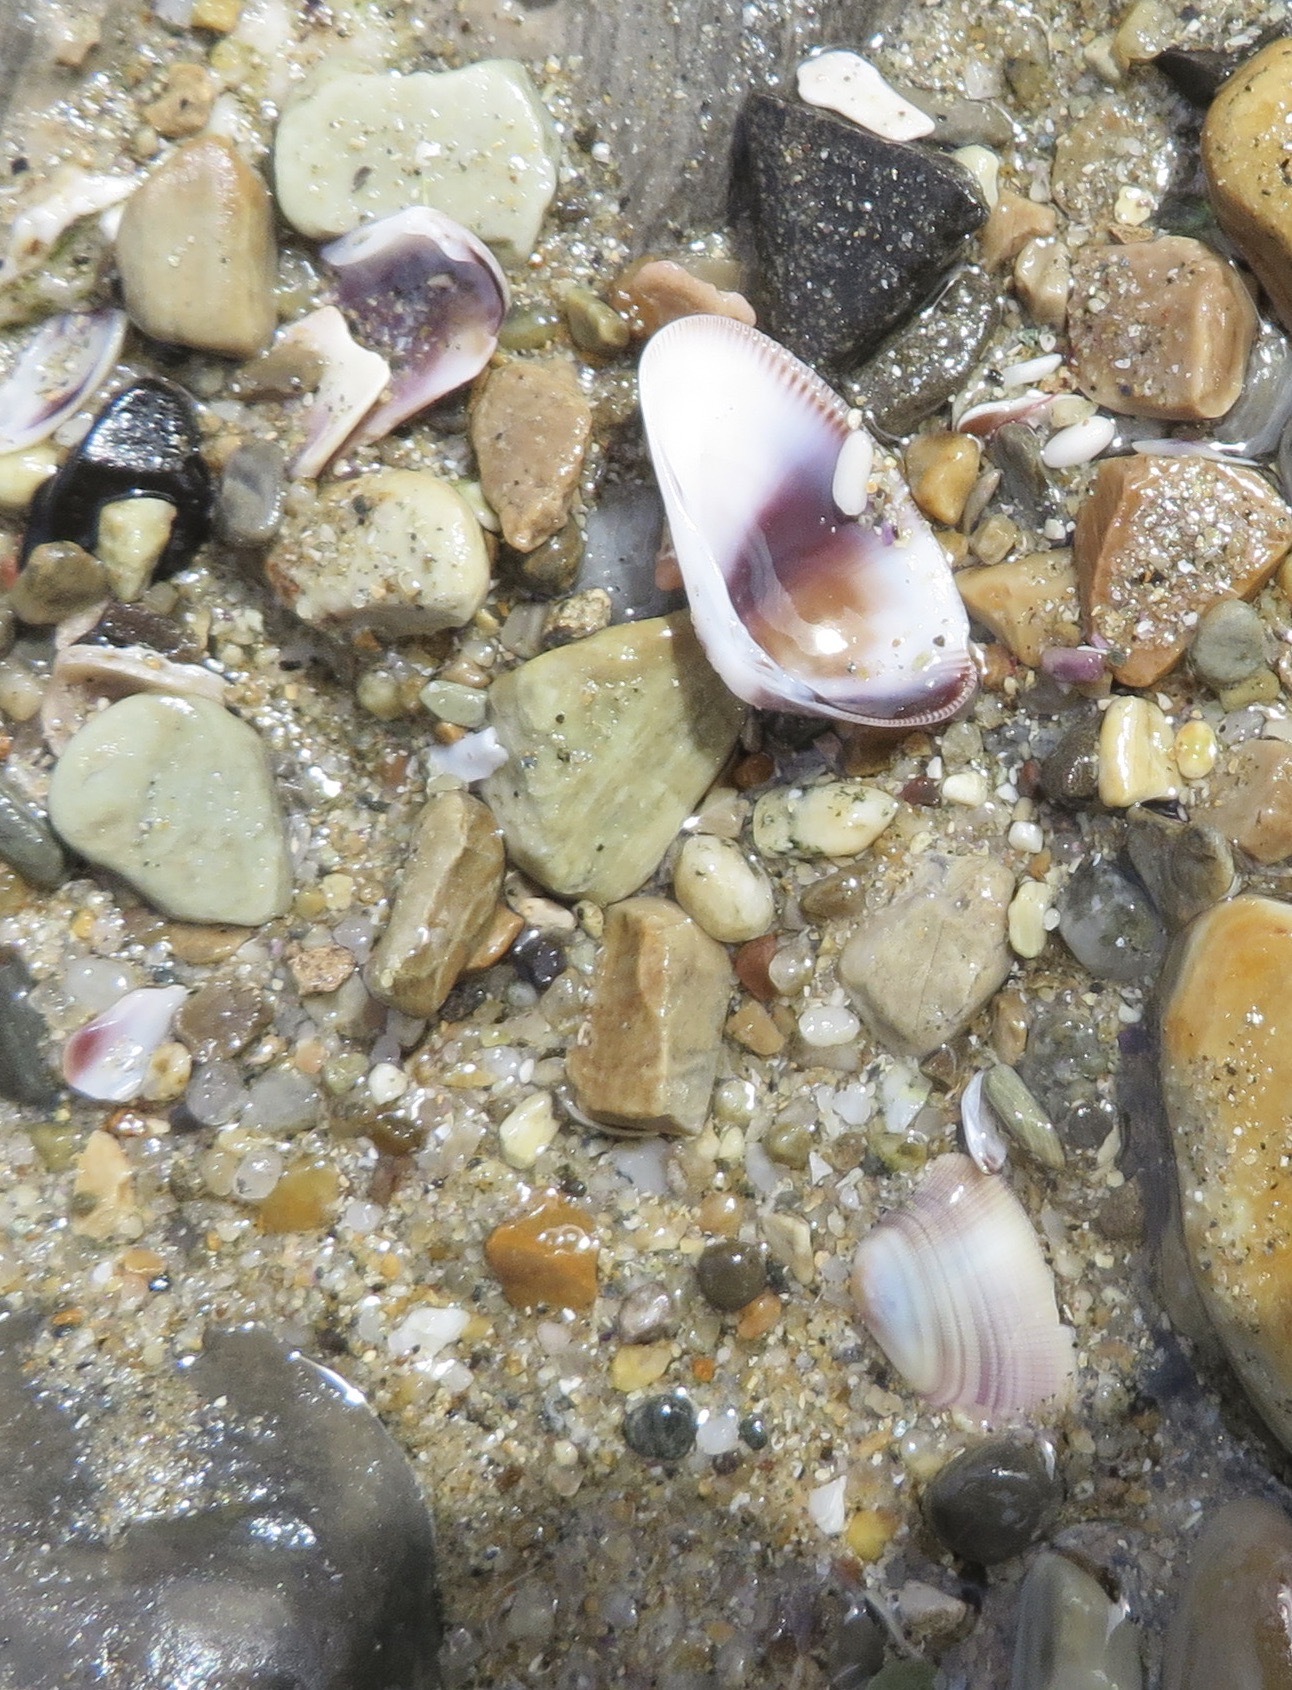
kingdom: Animalia
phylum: Mollusca
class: Bivalvia
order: Cardiida
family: Donacidae
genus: Donax
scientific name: Donax gouldii
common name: Gould beanclam
